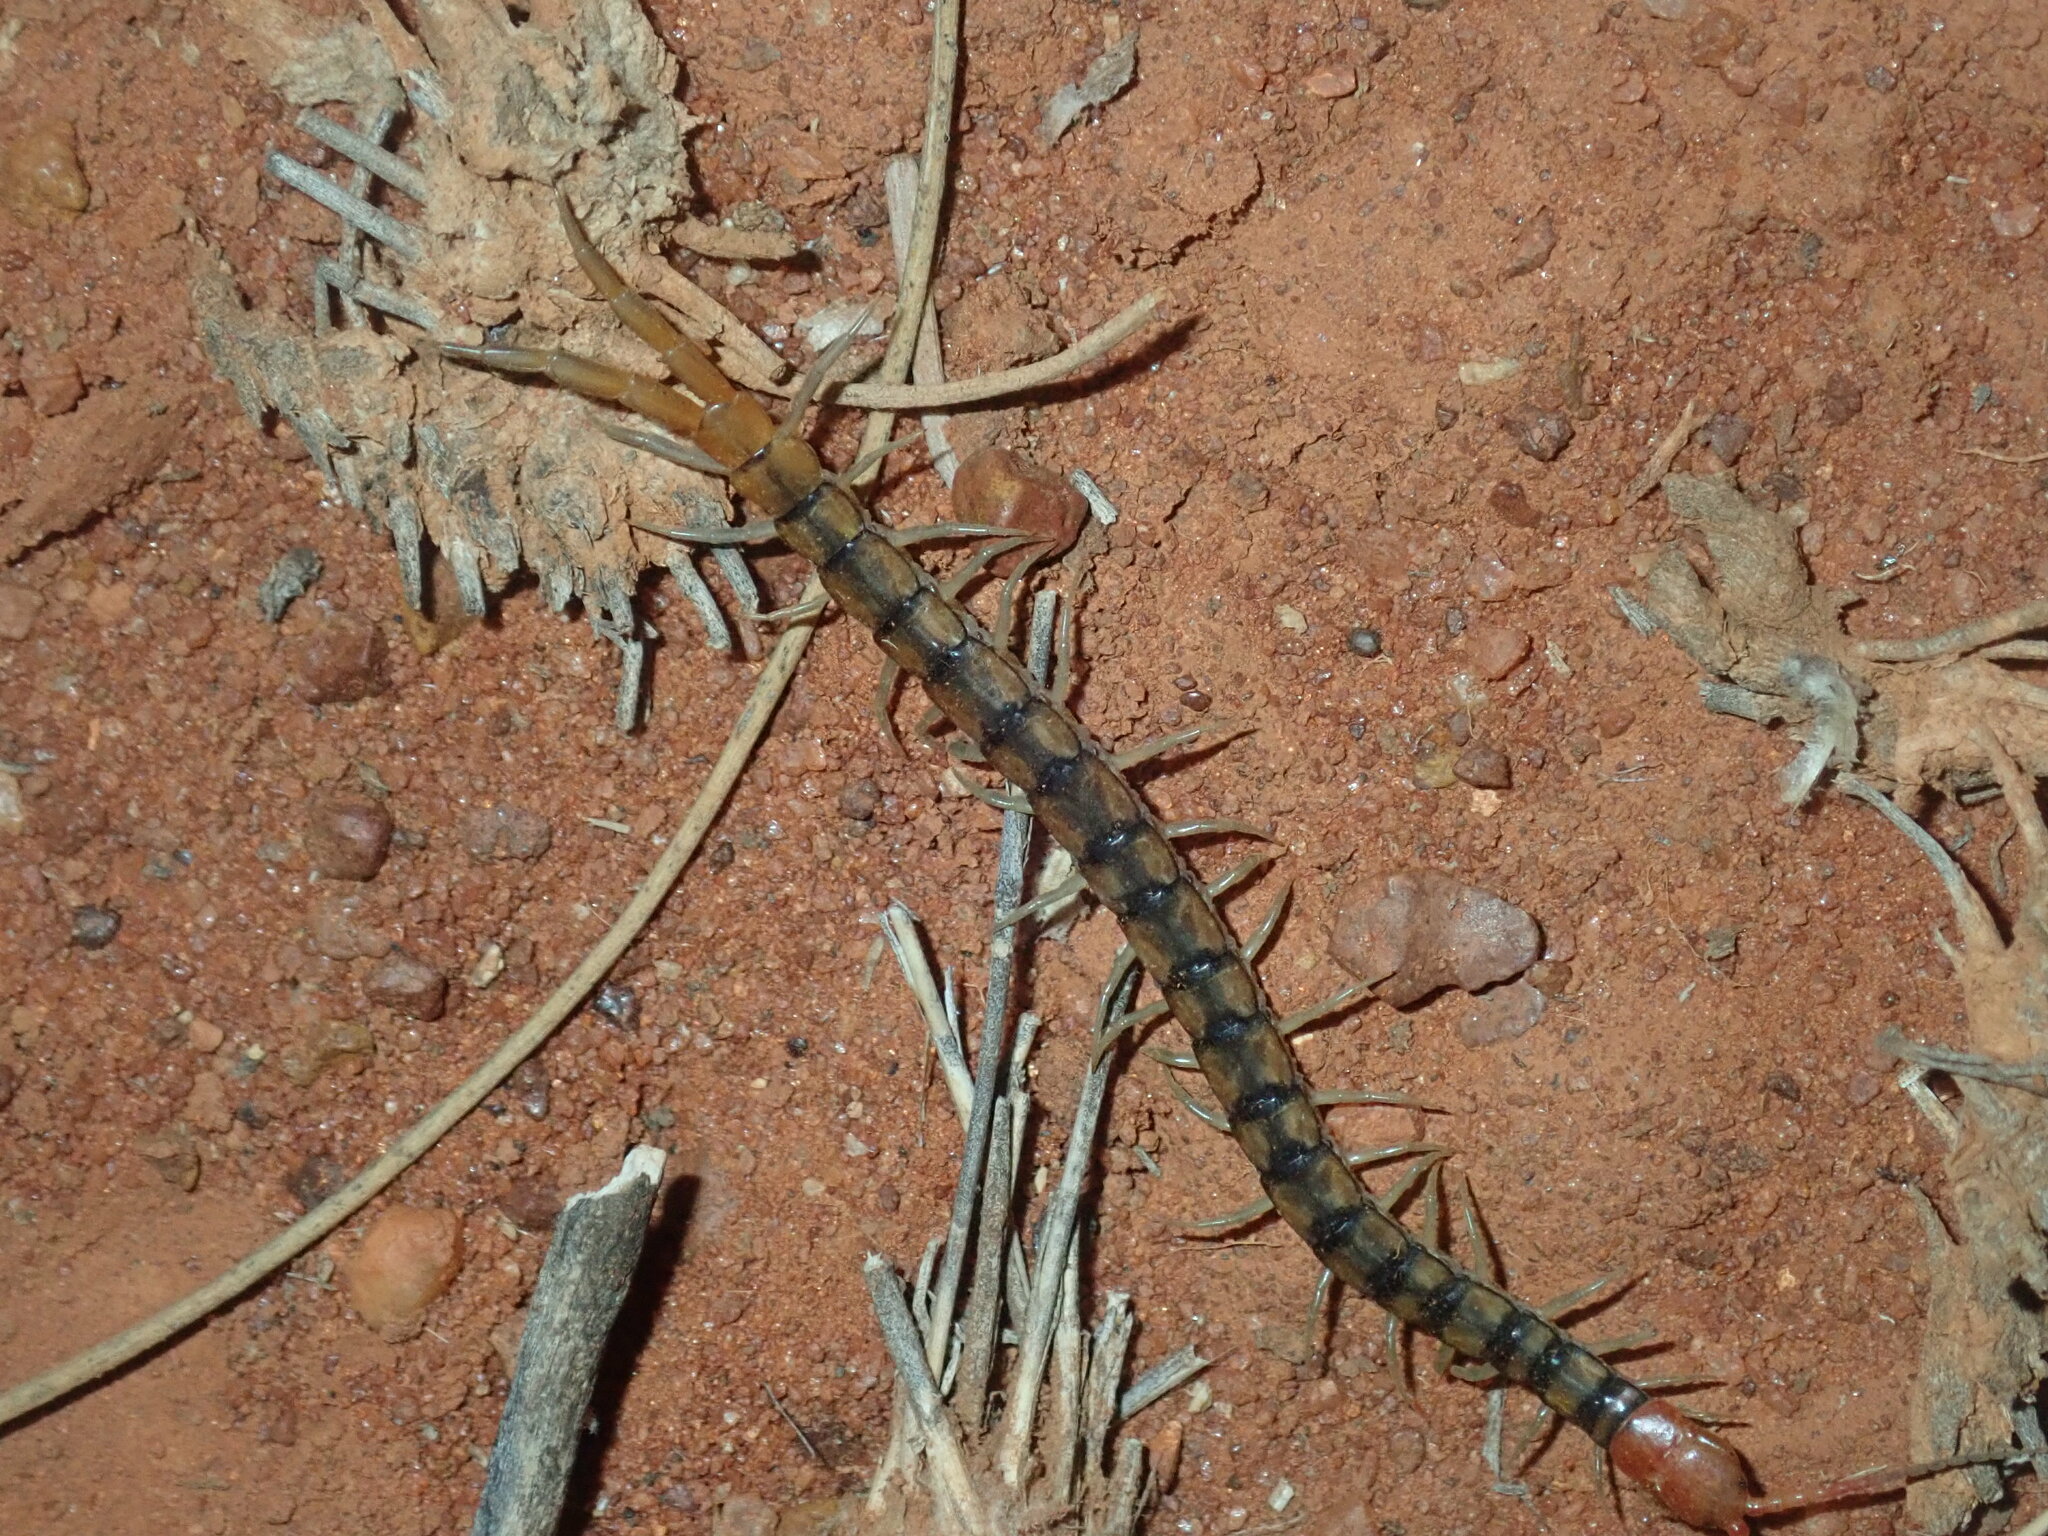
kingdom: Animalia
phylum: Arthropoda
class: Chilopoda
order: Scolopendromorpha
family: Scolopendridae
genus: Scolopendra
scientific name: Scolopendra morsitans
